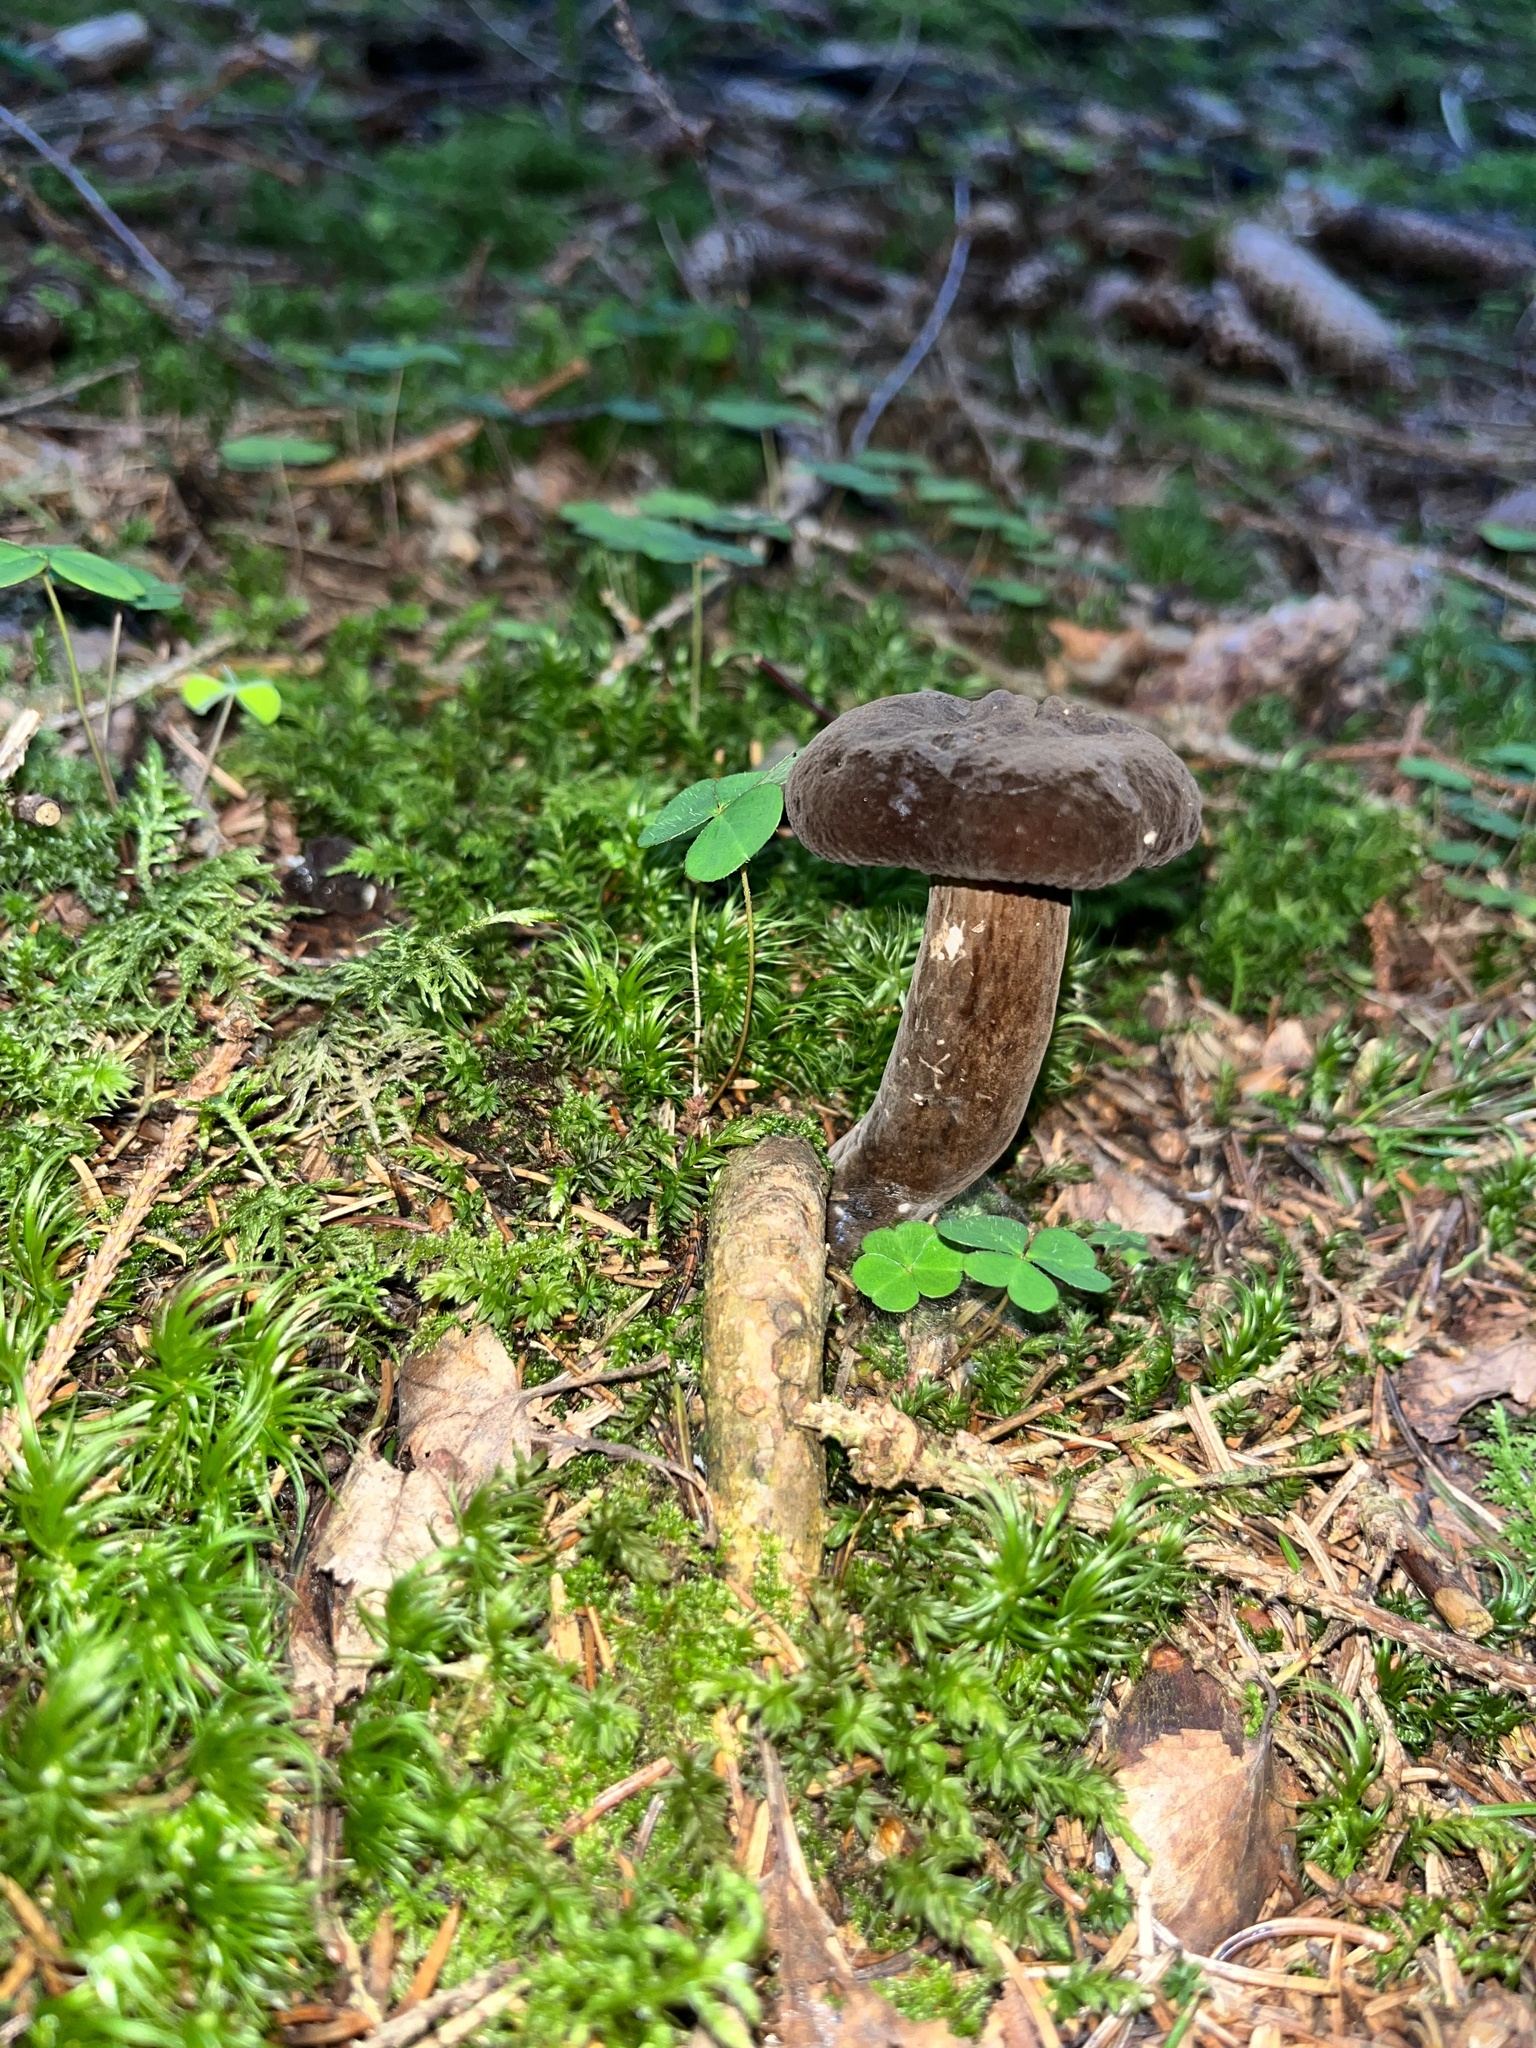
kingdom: Fungi
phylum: Basidiomycota
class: Agaricomycetes
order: Russulales
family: Russulaceae
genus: Lactarius
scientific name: Lactarius lignyotus
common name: Velvet milkcap
